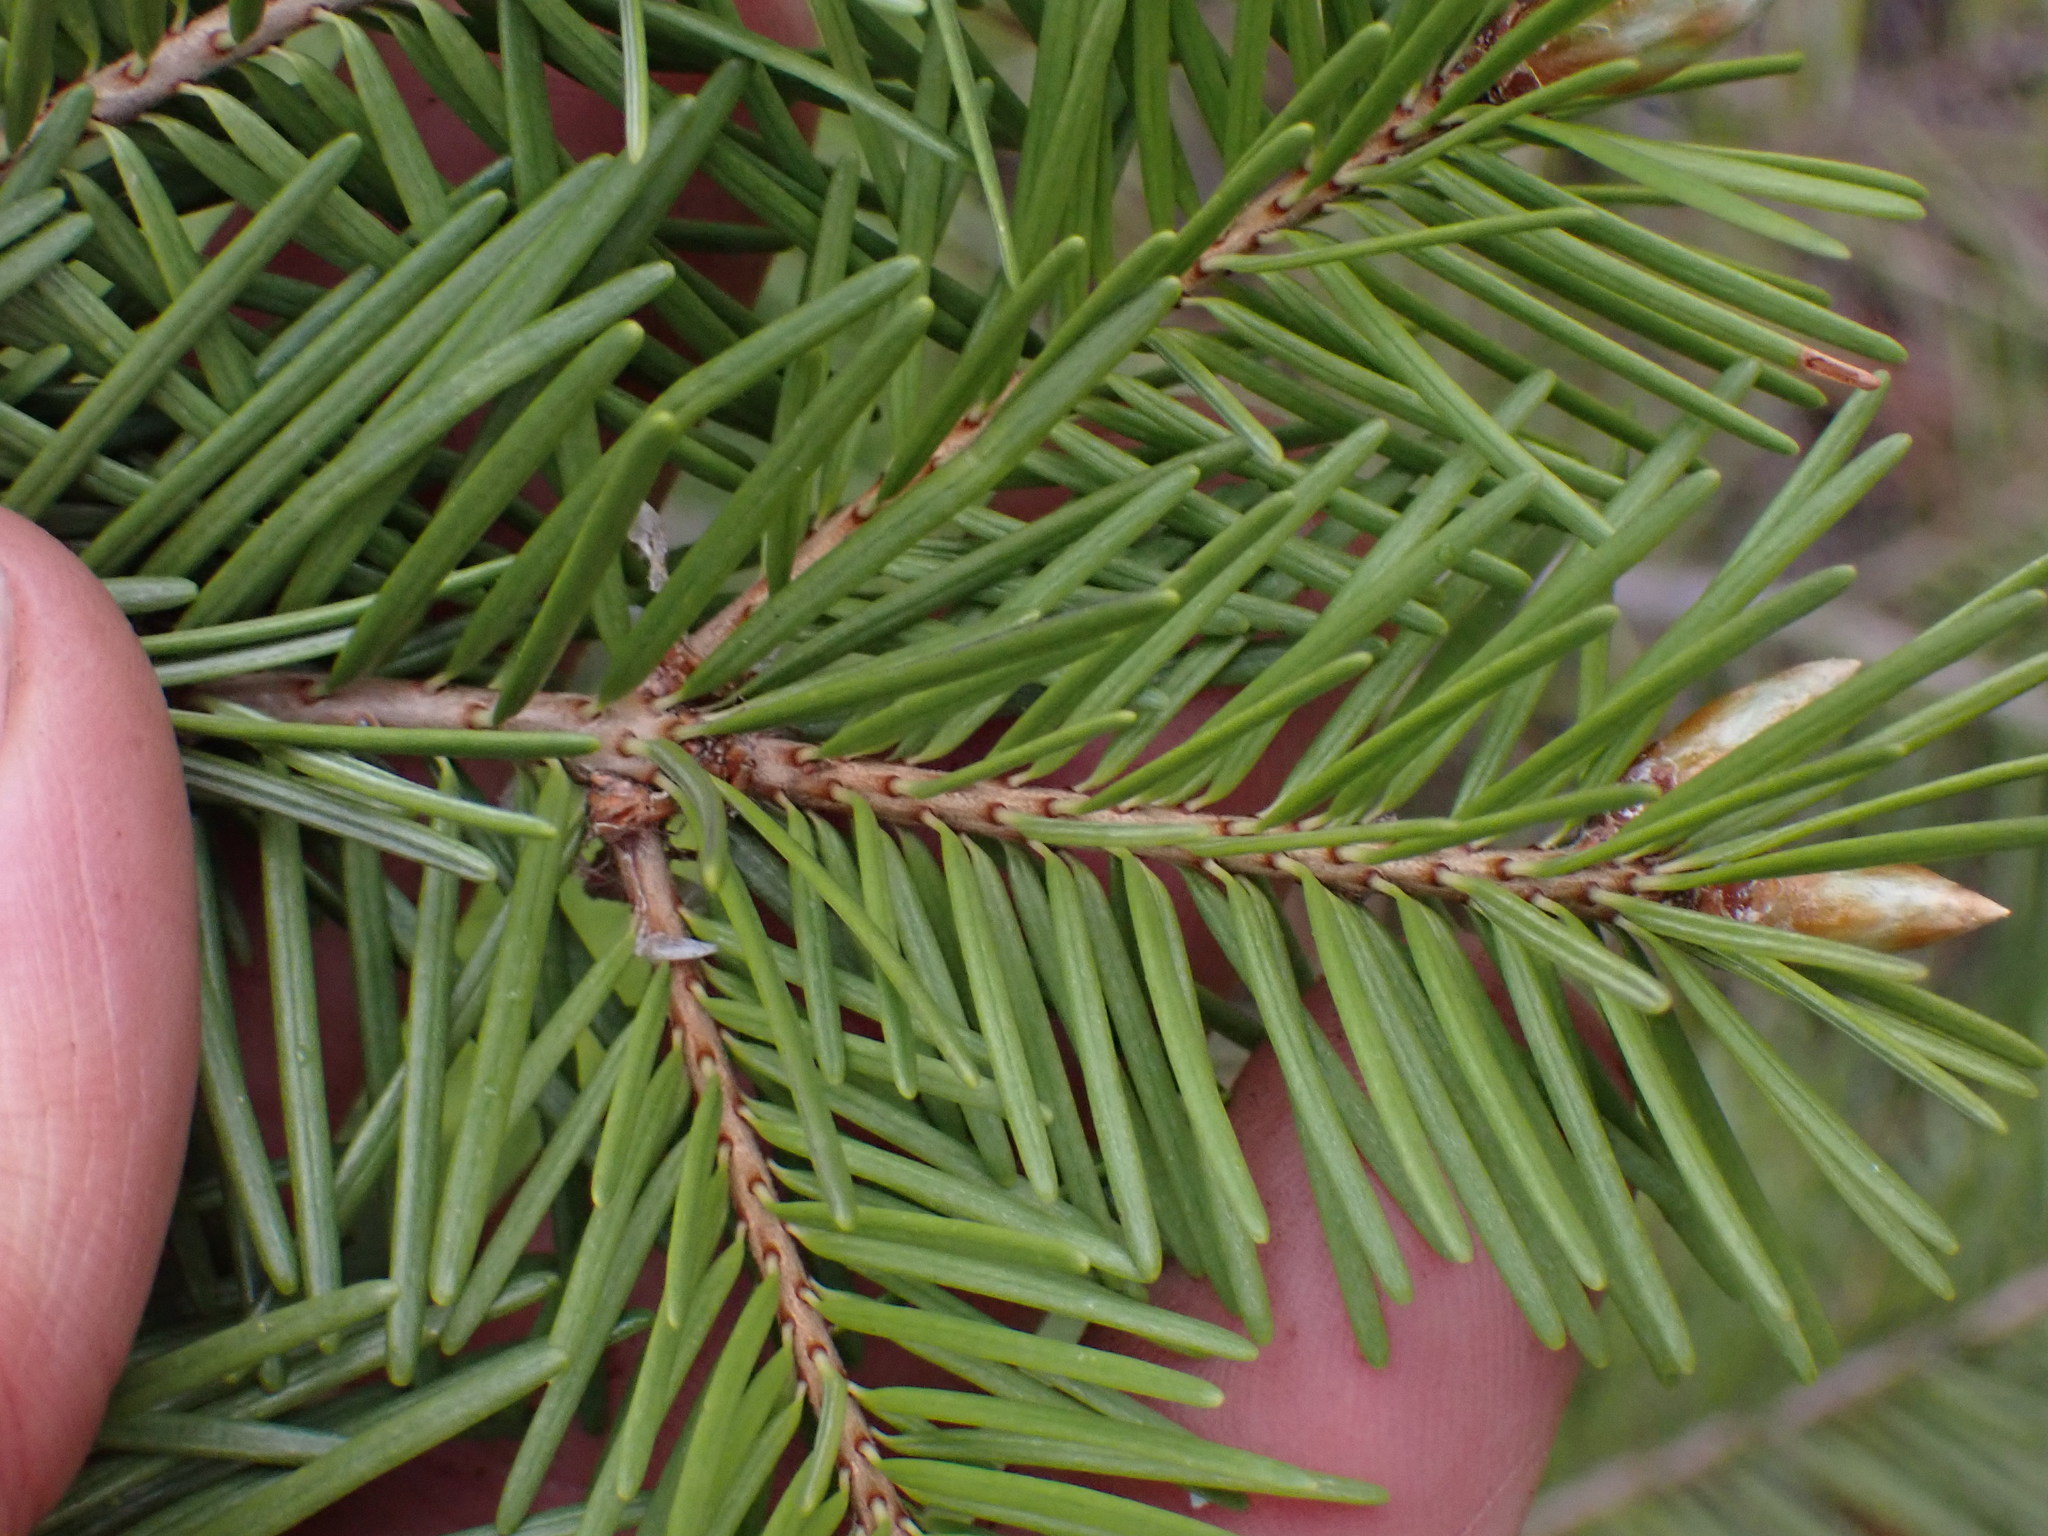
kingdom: Plantae
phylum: Tracheophyta
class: Pinopsida
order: Pinales
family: Pinaceae
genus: Pseudotsuga
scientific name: Pseudotsuga menziesii
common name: Douglas fir
